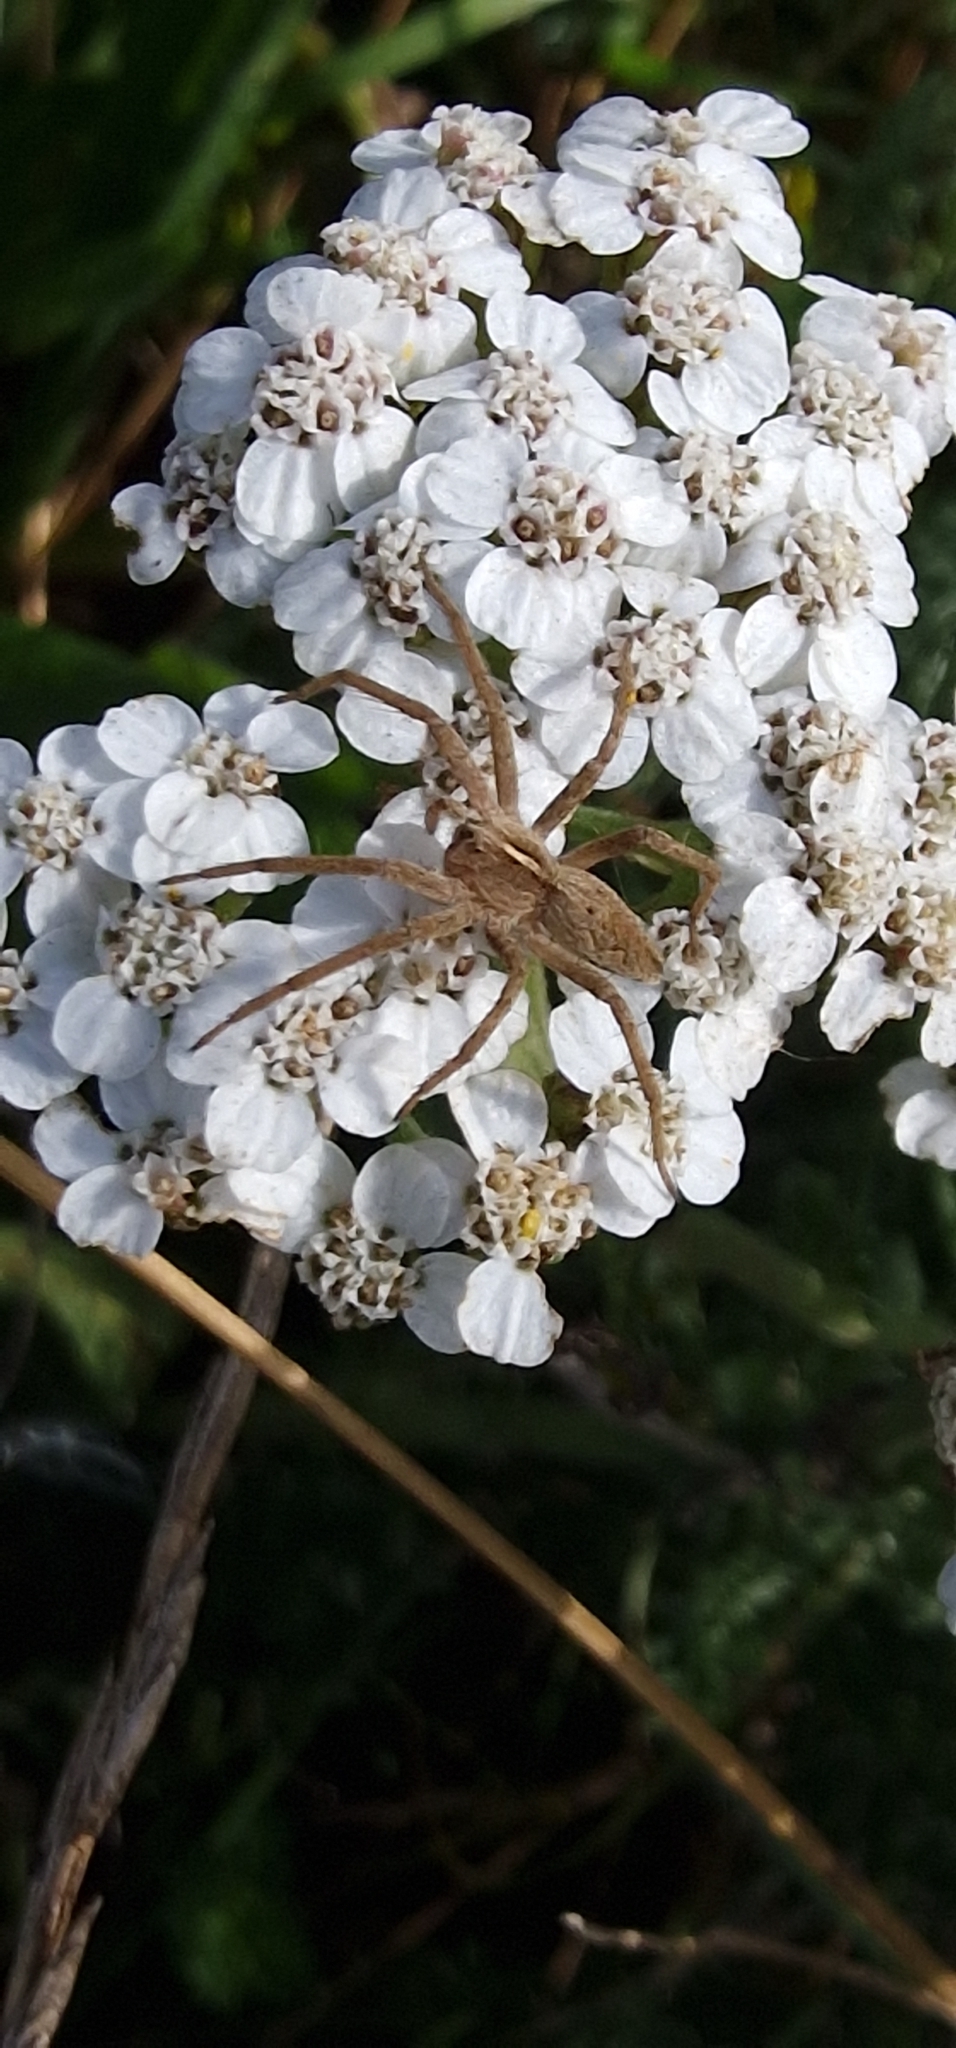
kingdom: Animalia
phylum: Arthropoda
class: Arachnida
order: Araneae
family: Pisauridae
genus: Pisaura
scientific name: Pisaura mirabilis
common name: Tent spider
